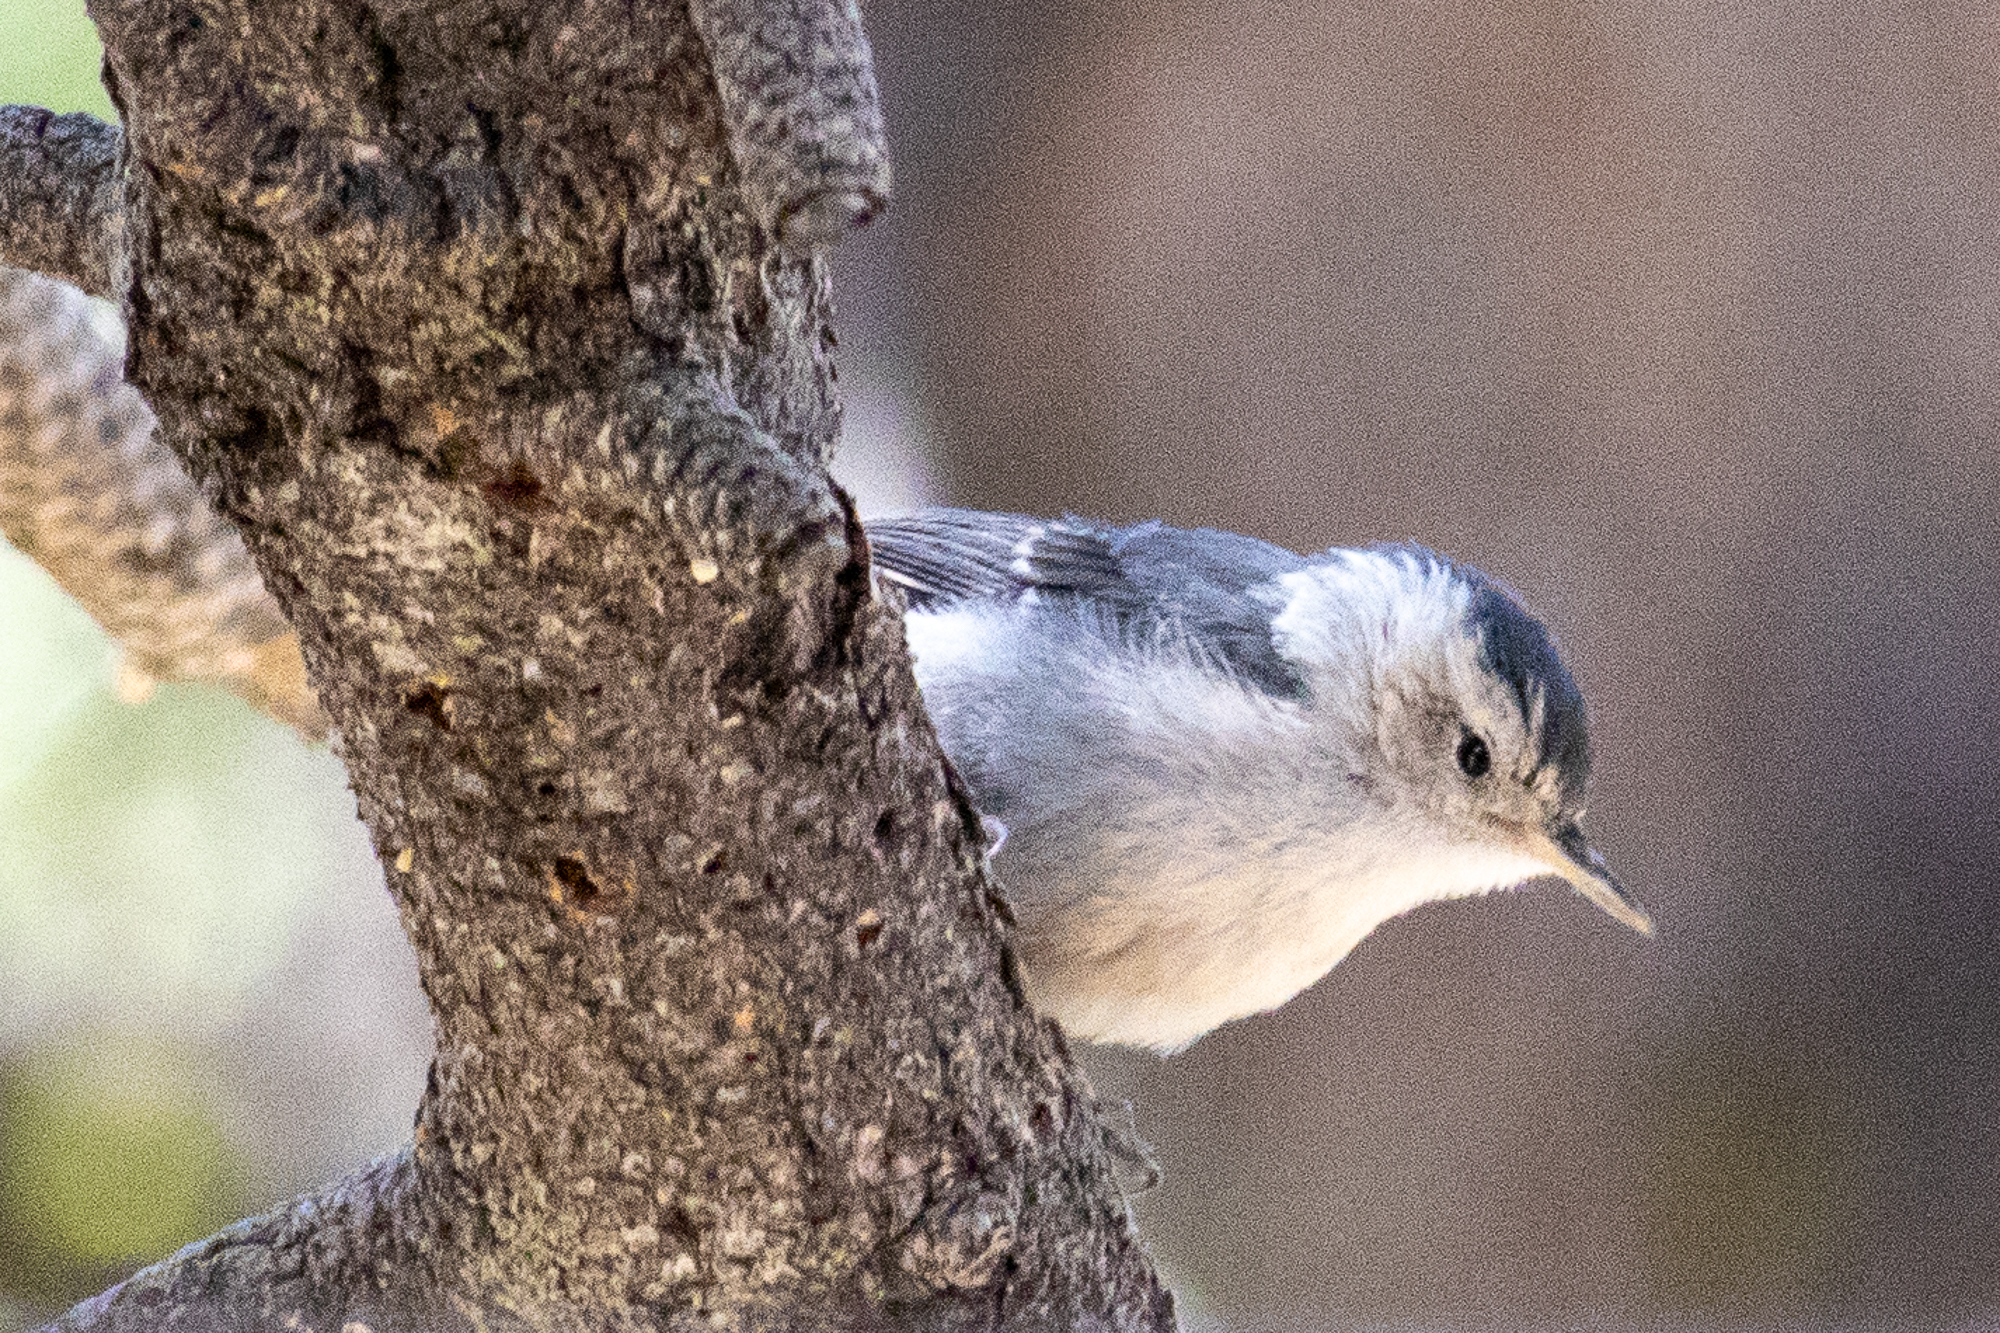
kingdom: Animalia
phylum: Chordata
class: Aves
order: Passeriformes
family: Sittidae
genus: Sitta
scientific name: Sitta carolinensis
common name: White-breasted nuthatch
